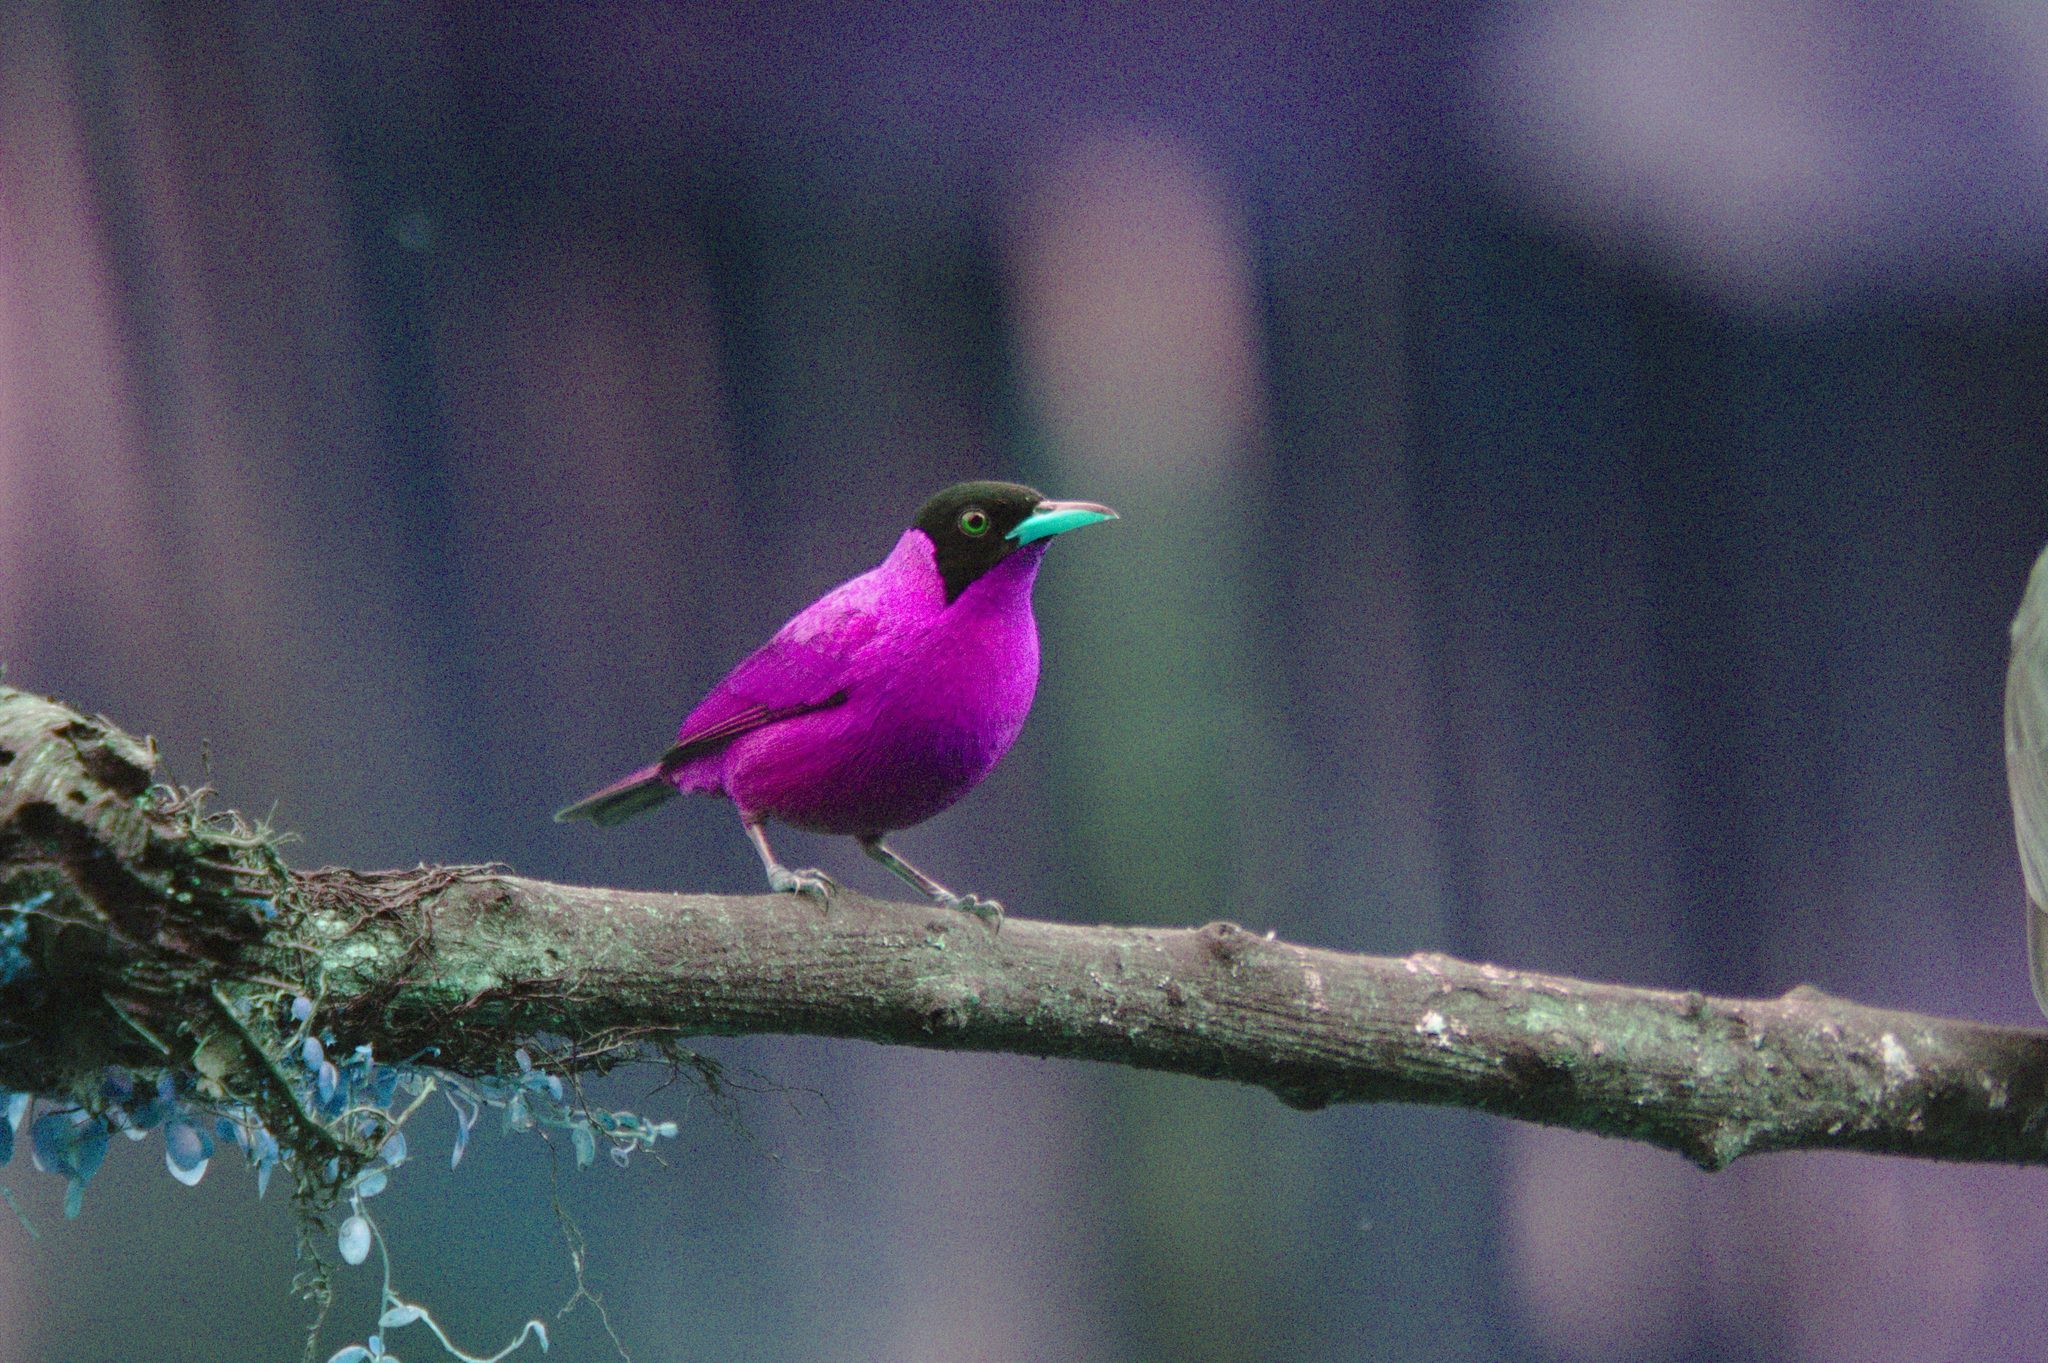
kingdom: Animalia
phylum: Chordata
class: Aves
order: Passeriformes
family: Thraupidae
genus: Chlorophanes
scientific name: Chlorophanes spiza
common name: Green honeycreeper
